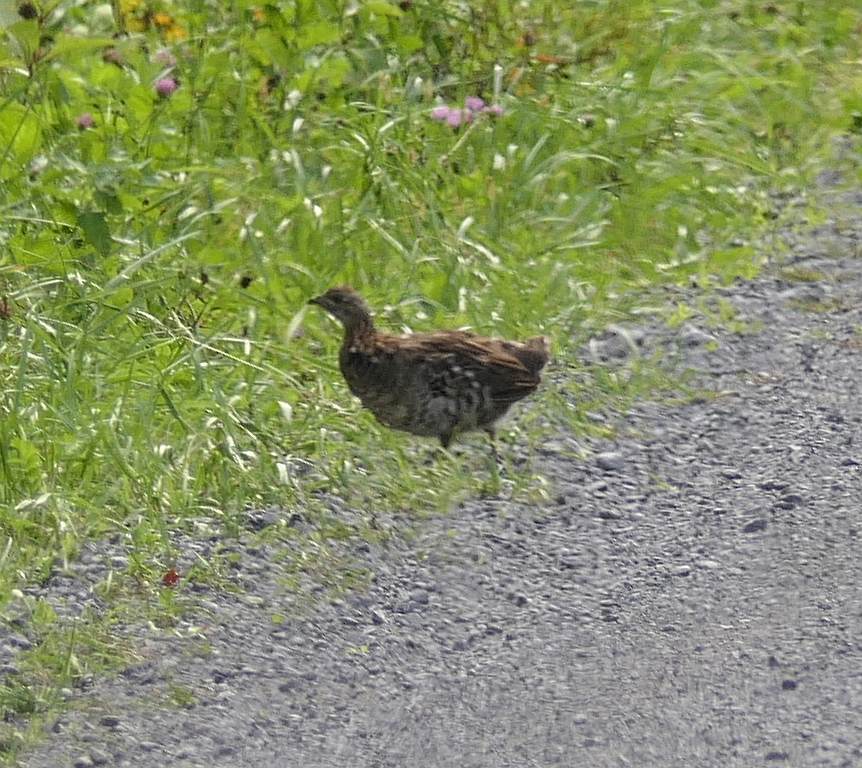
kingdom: Animalia
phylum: Chordata
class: Aves
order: Galliformes
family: Phasianidae
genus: Bonasa
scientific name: Bonasa umbellus
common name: Ruffed grouse
